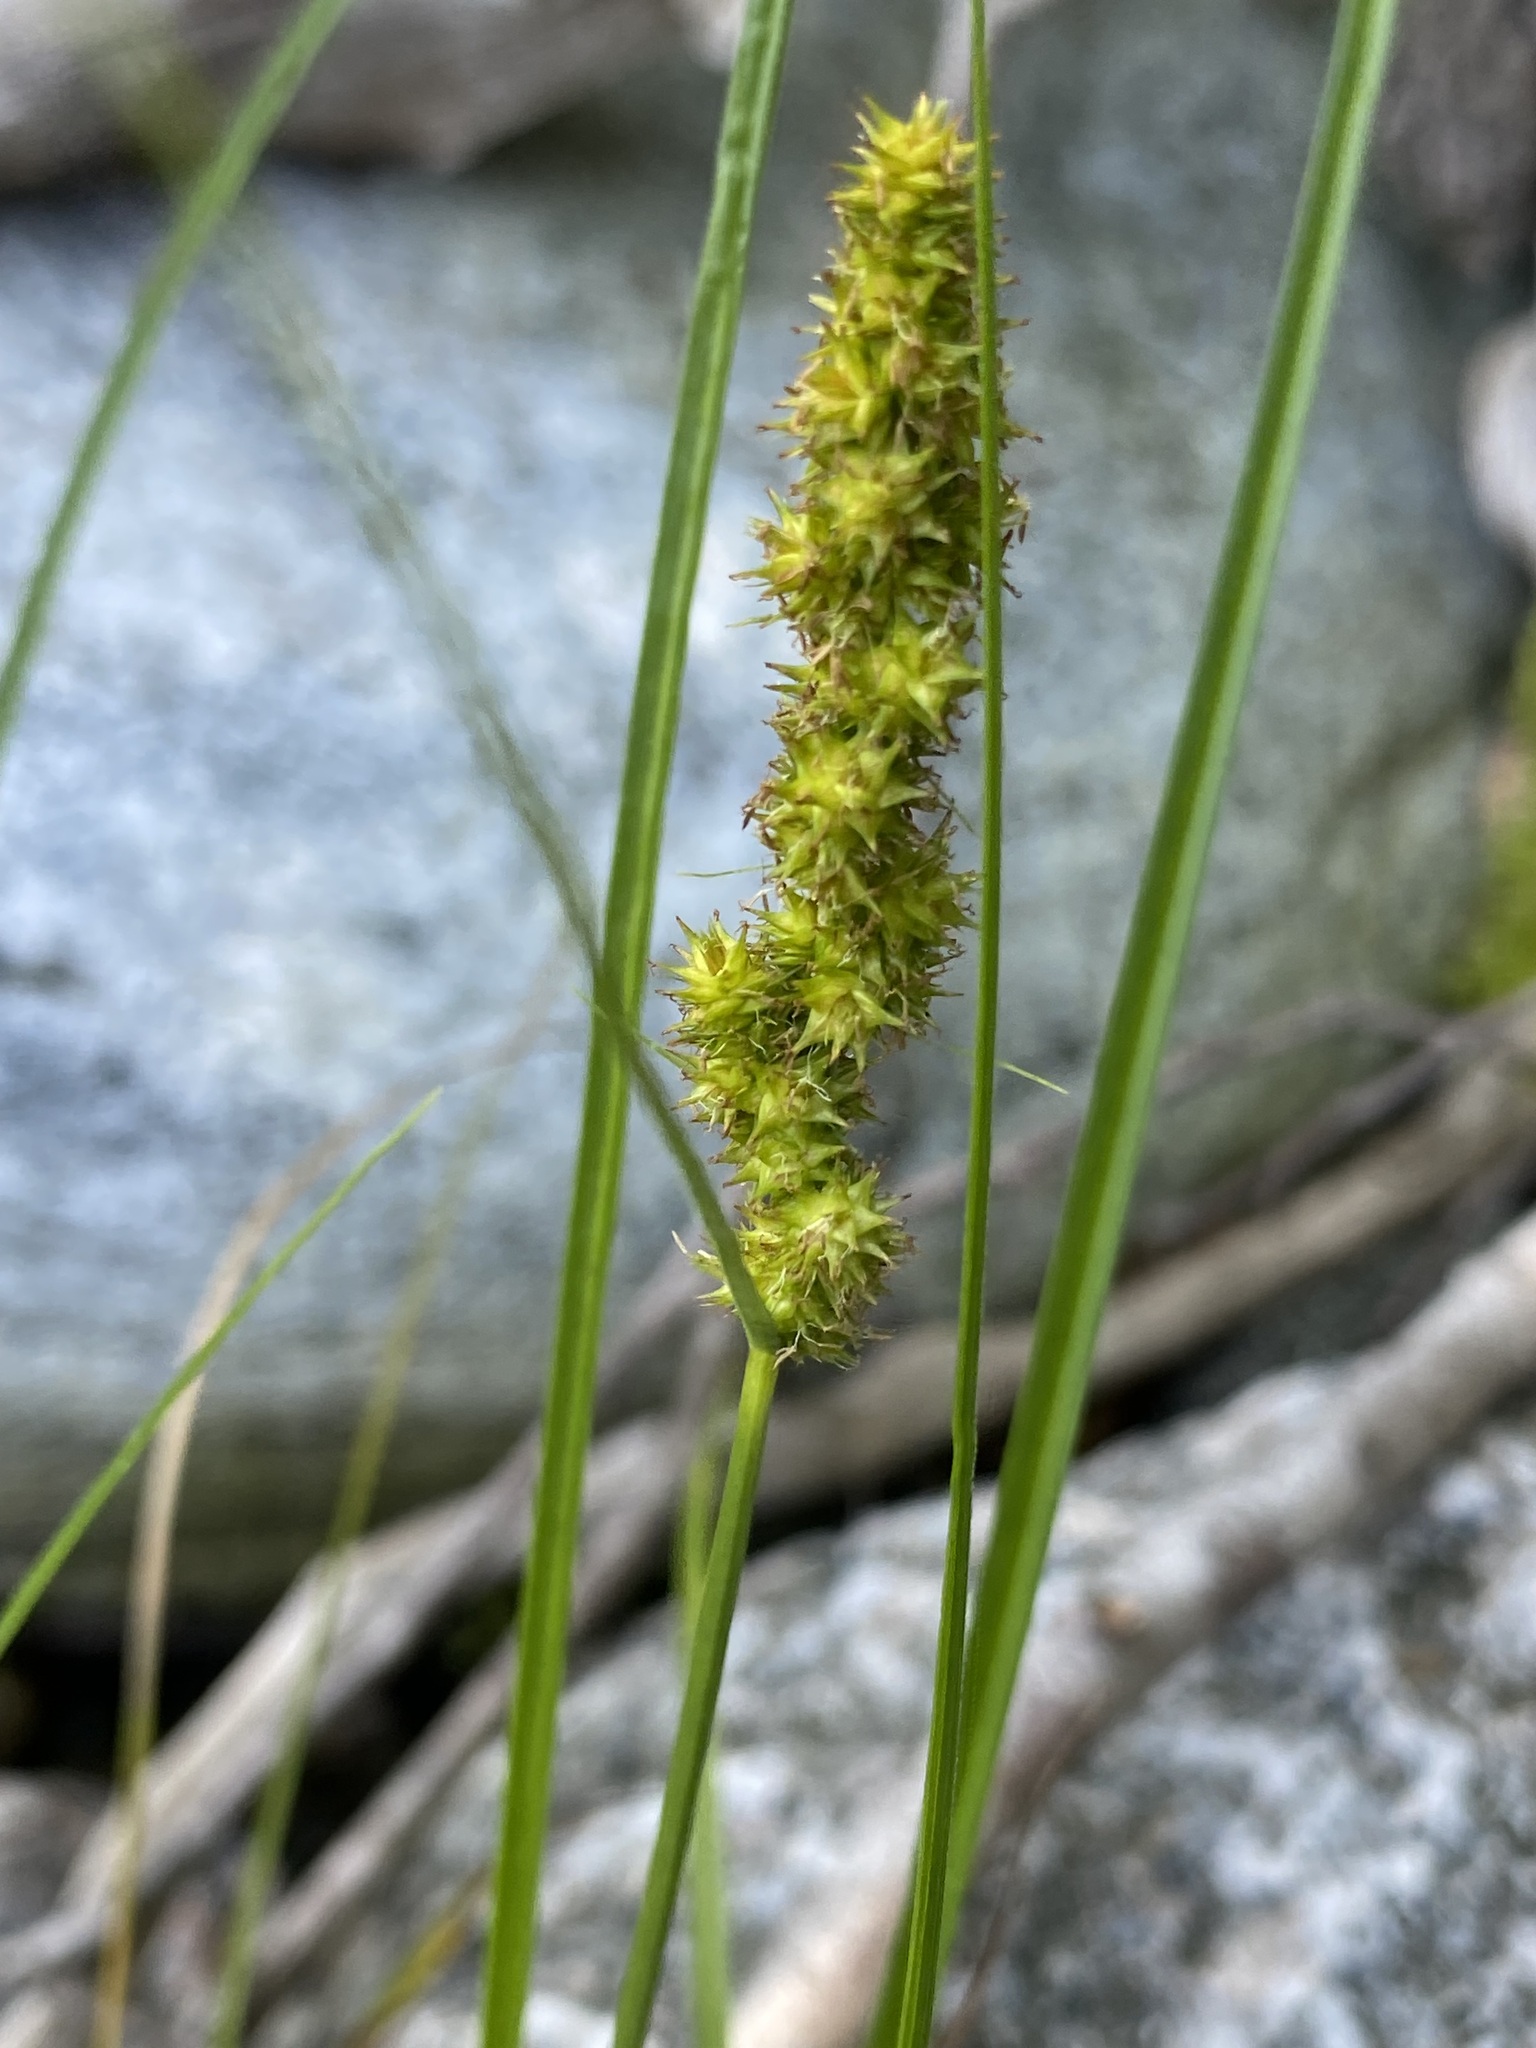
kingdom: Plantae
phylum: Tracheophyta
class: Liliopsida
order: Poales
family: Cyperaceae
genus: Carex
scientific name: Carex vulpinoidea
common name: American fox-sedge
